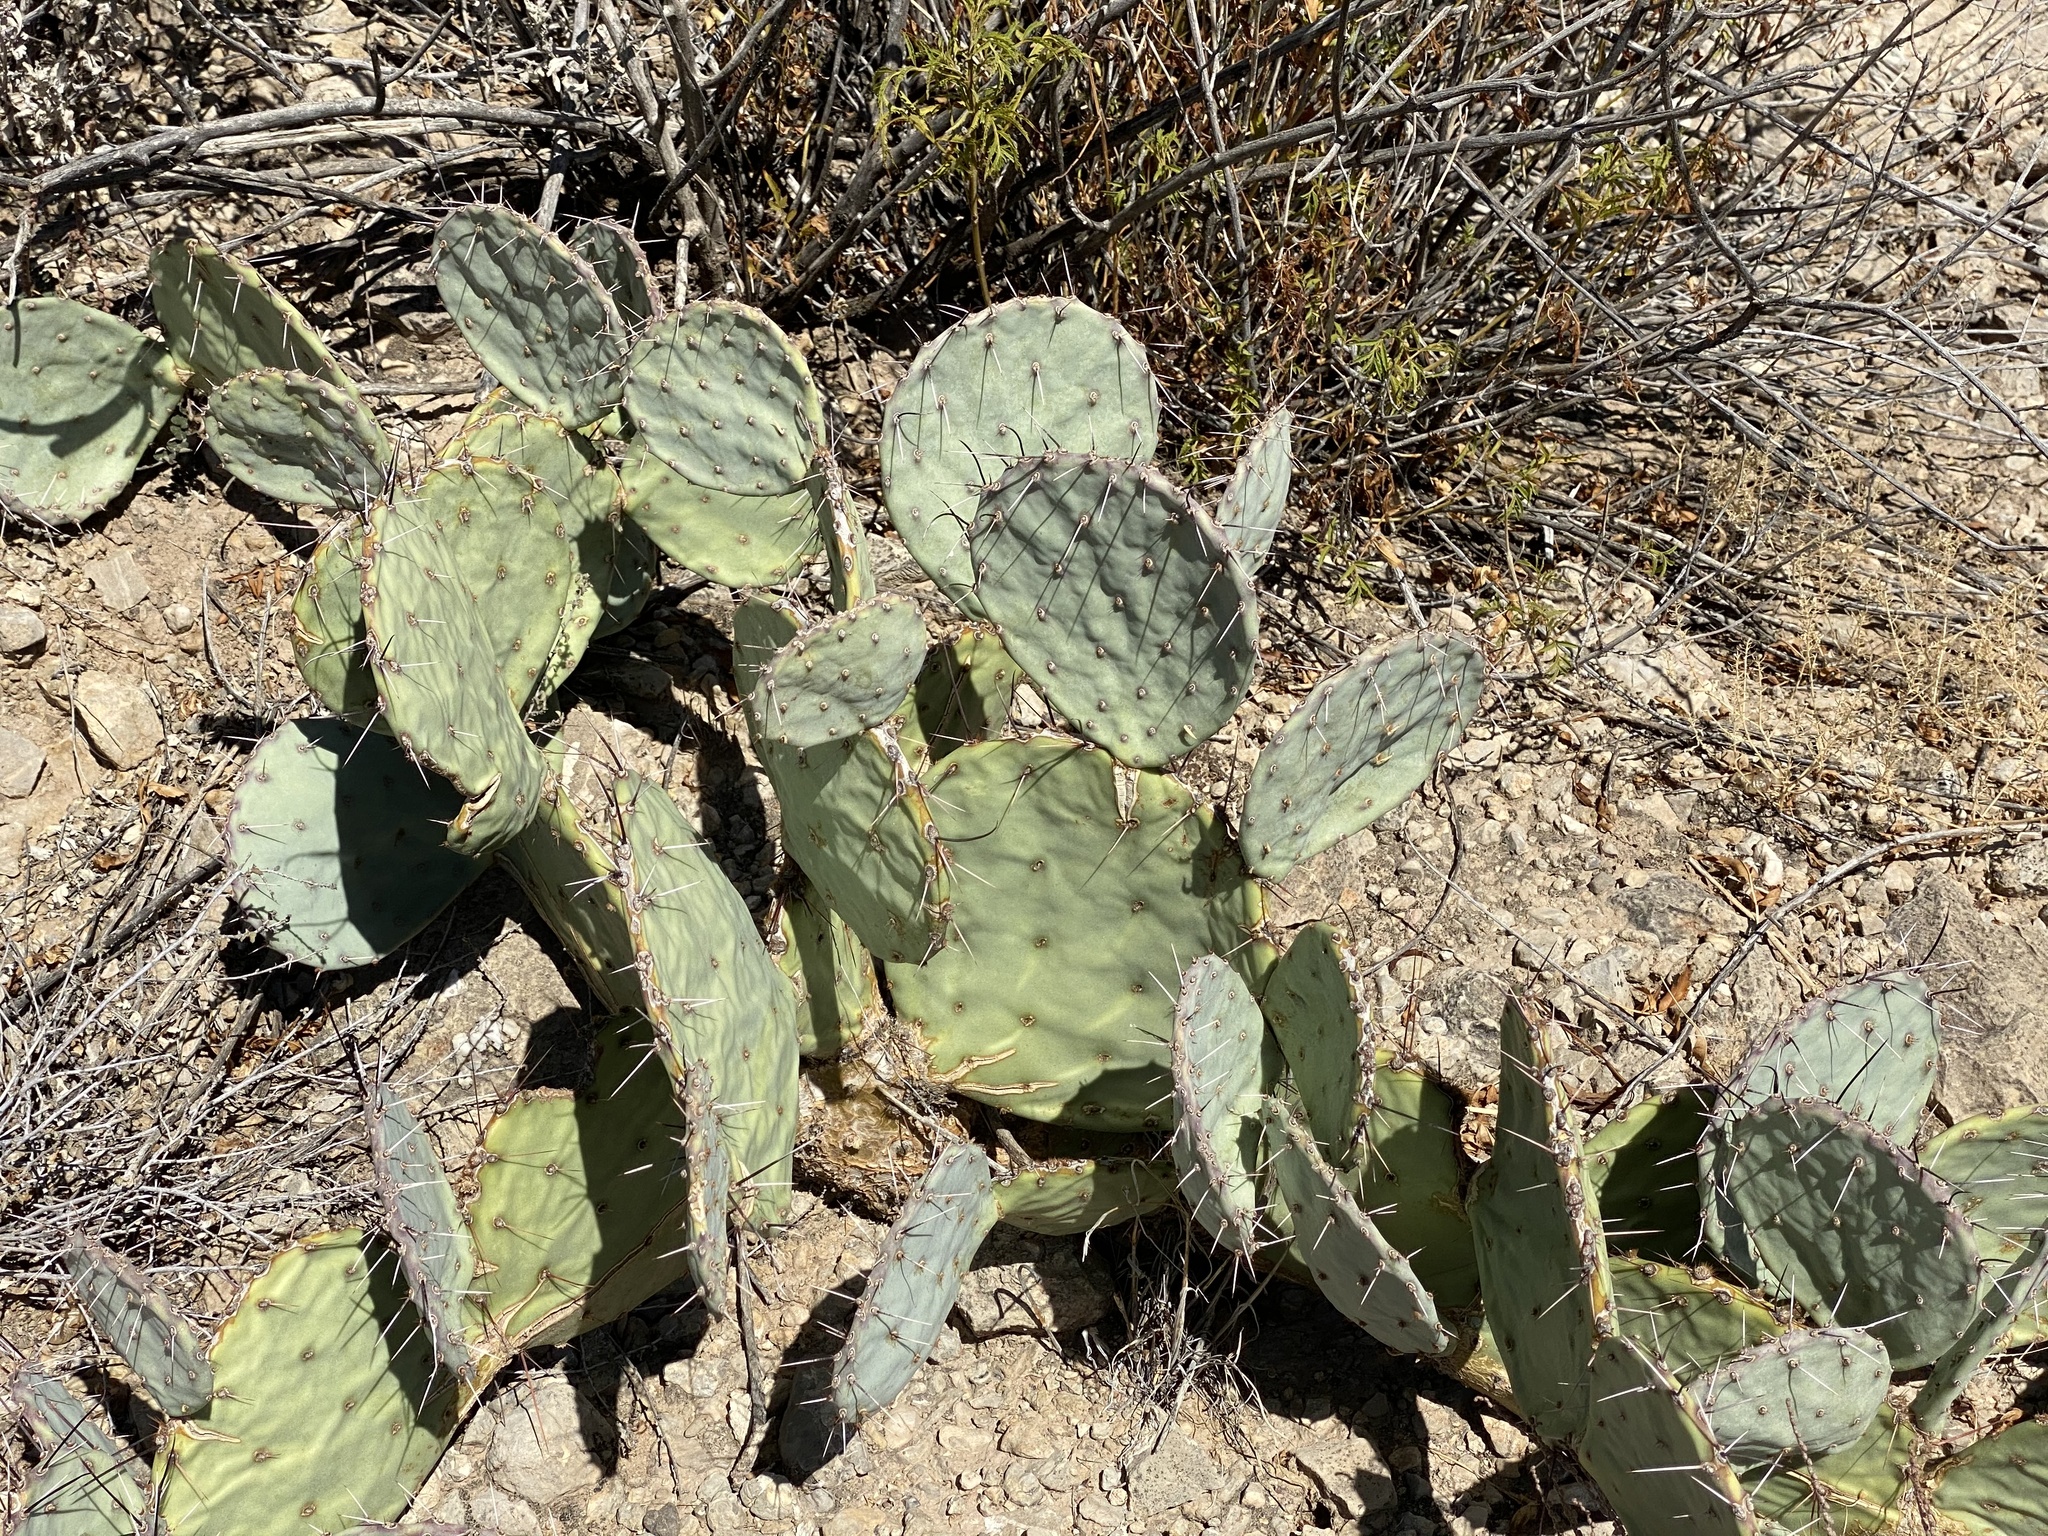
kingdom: Plantae
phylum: Tracheophyta
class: Magnoliopsida
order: Caryophyllales
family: Cactaceae
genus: Opuntia
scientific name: Opuntia engelmannii
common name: Cactus-apple
